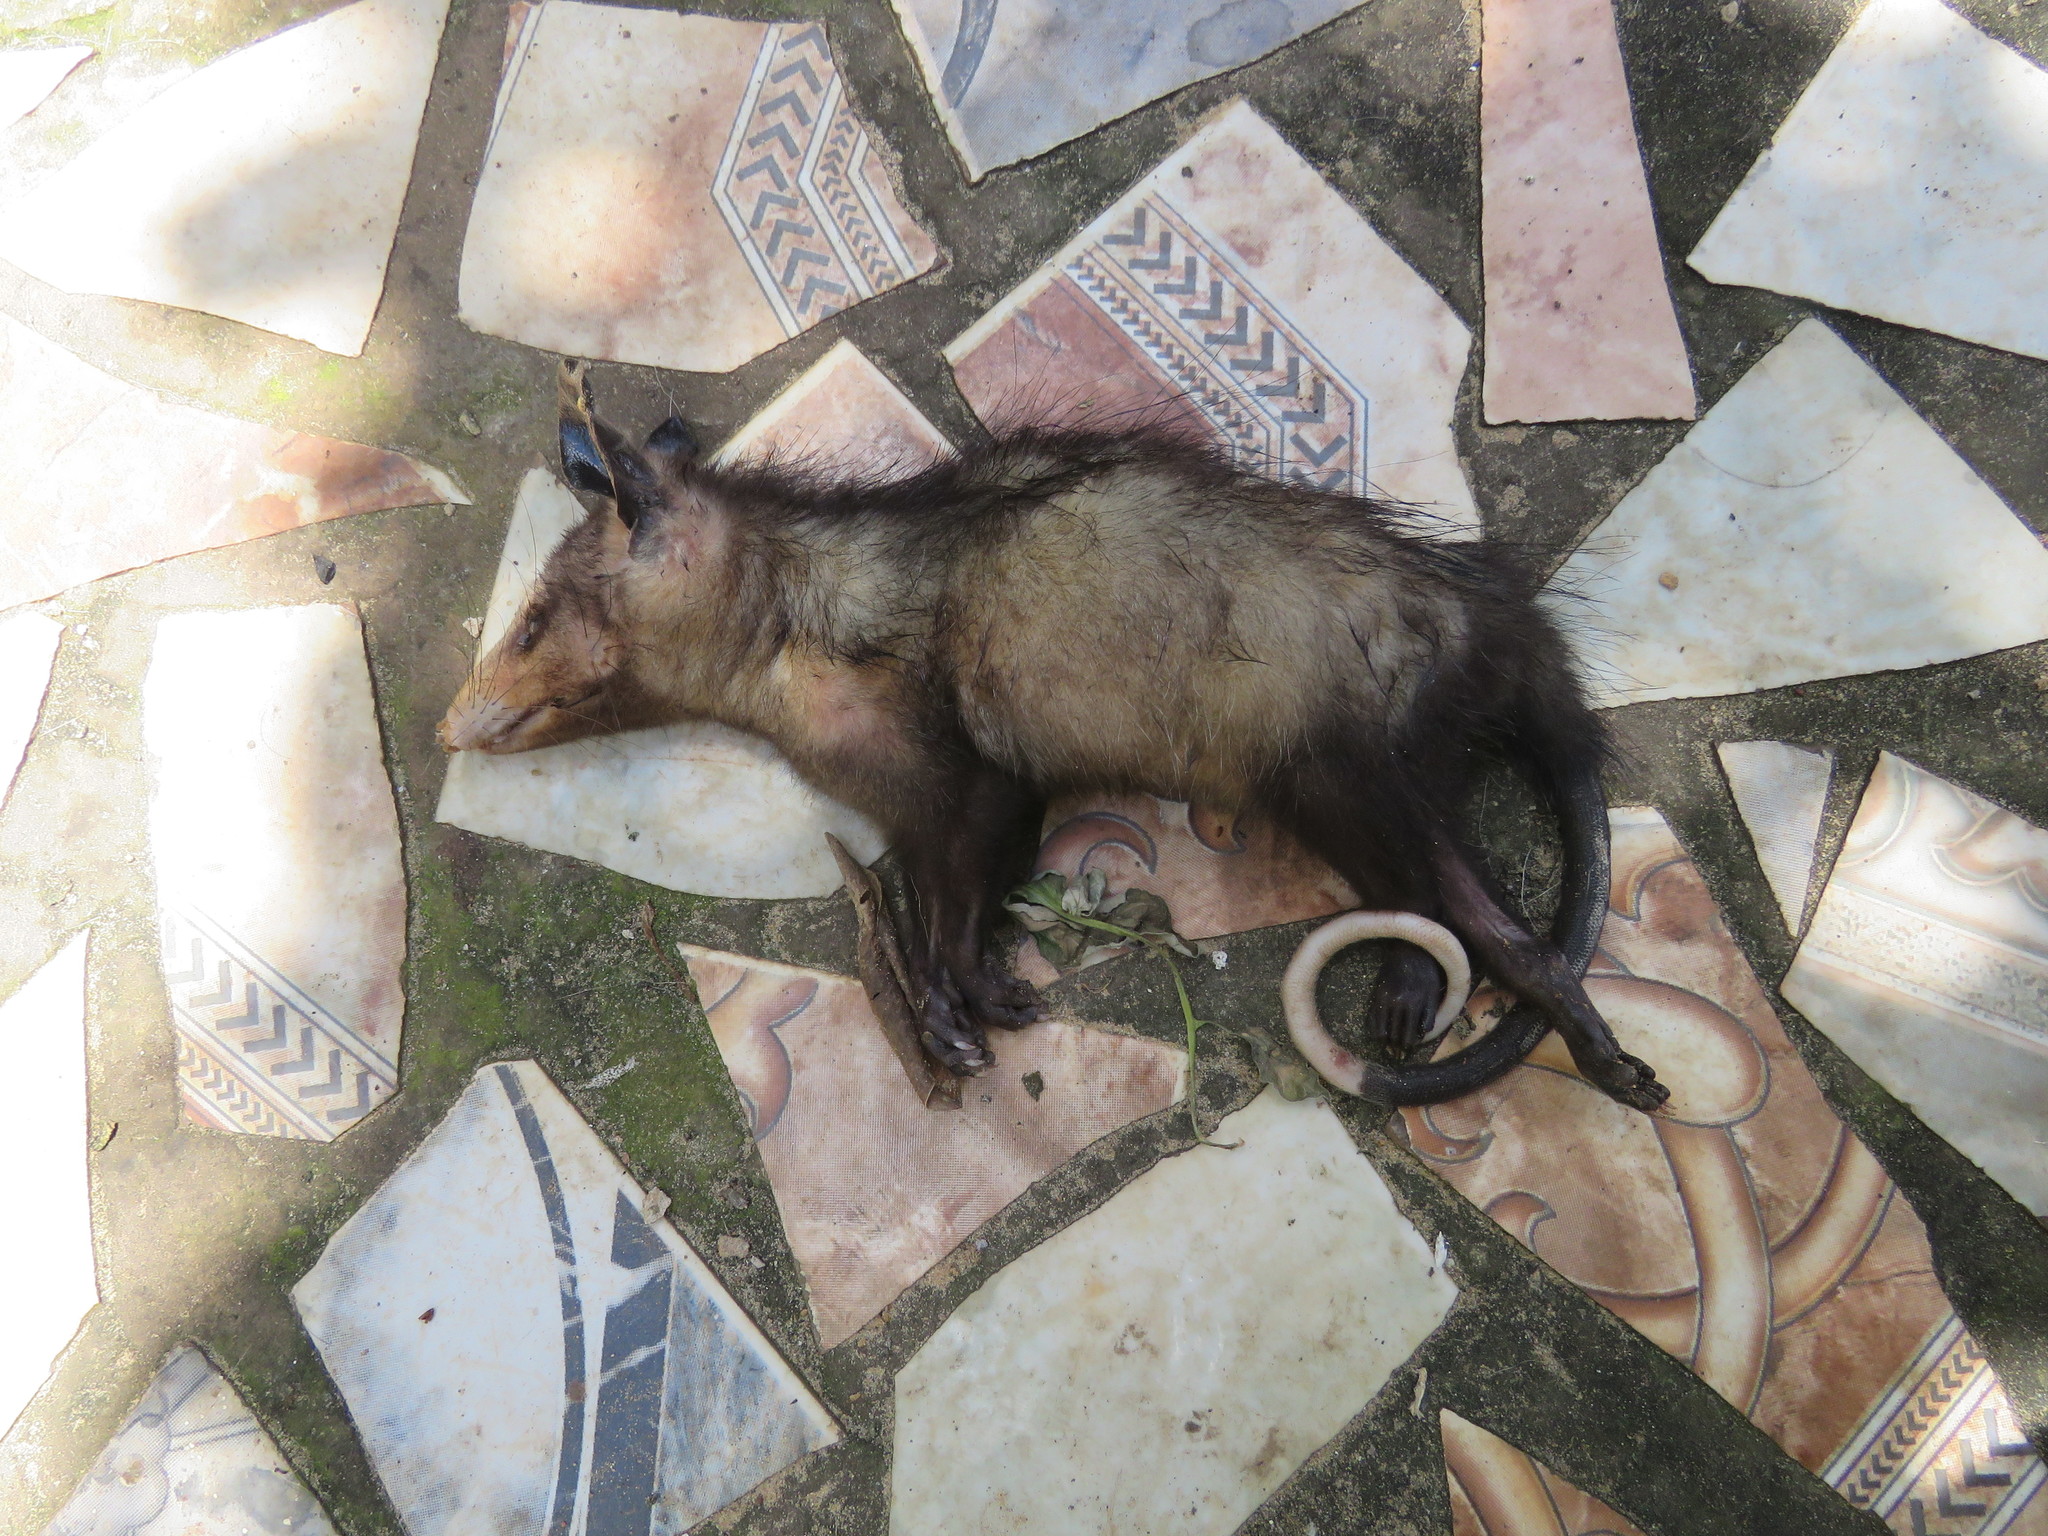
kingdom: Animalia
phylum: Chordata
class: Mammalia
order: Didelphimorphia
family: Didelphidae
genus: Didelphis
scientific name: Didelphis marsupialis
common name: Common opossum
